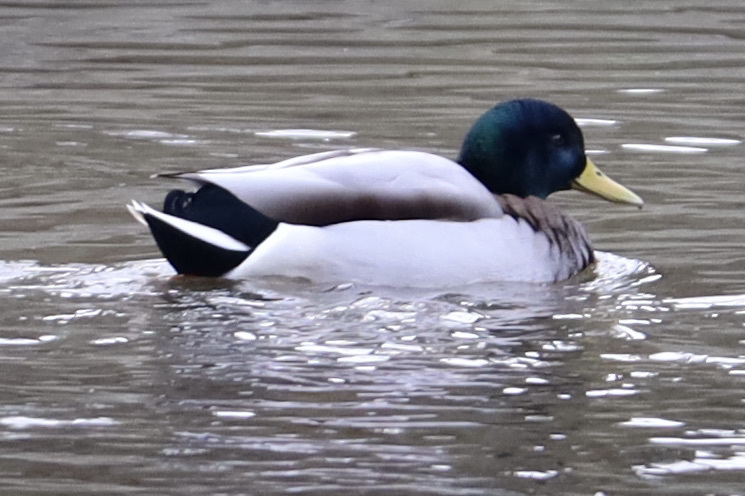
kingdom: Animalia
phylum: Chordata
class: Aves
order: Anseriformes
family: Anatidae
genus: Anas
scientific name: Anas platyrhynchos
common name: Mallard
